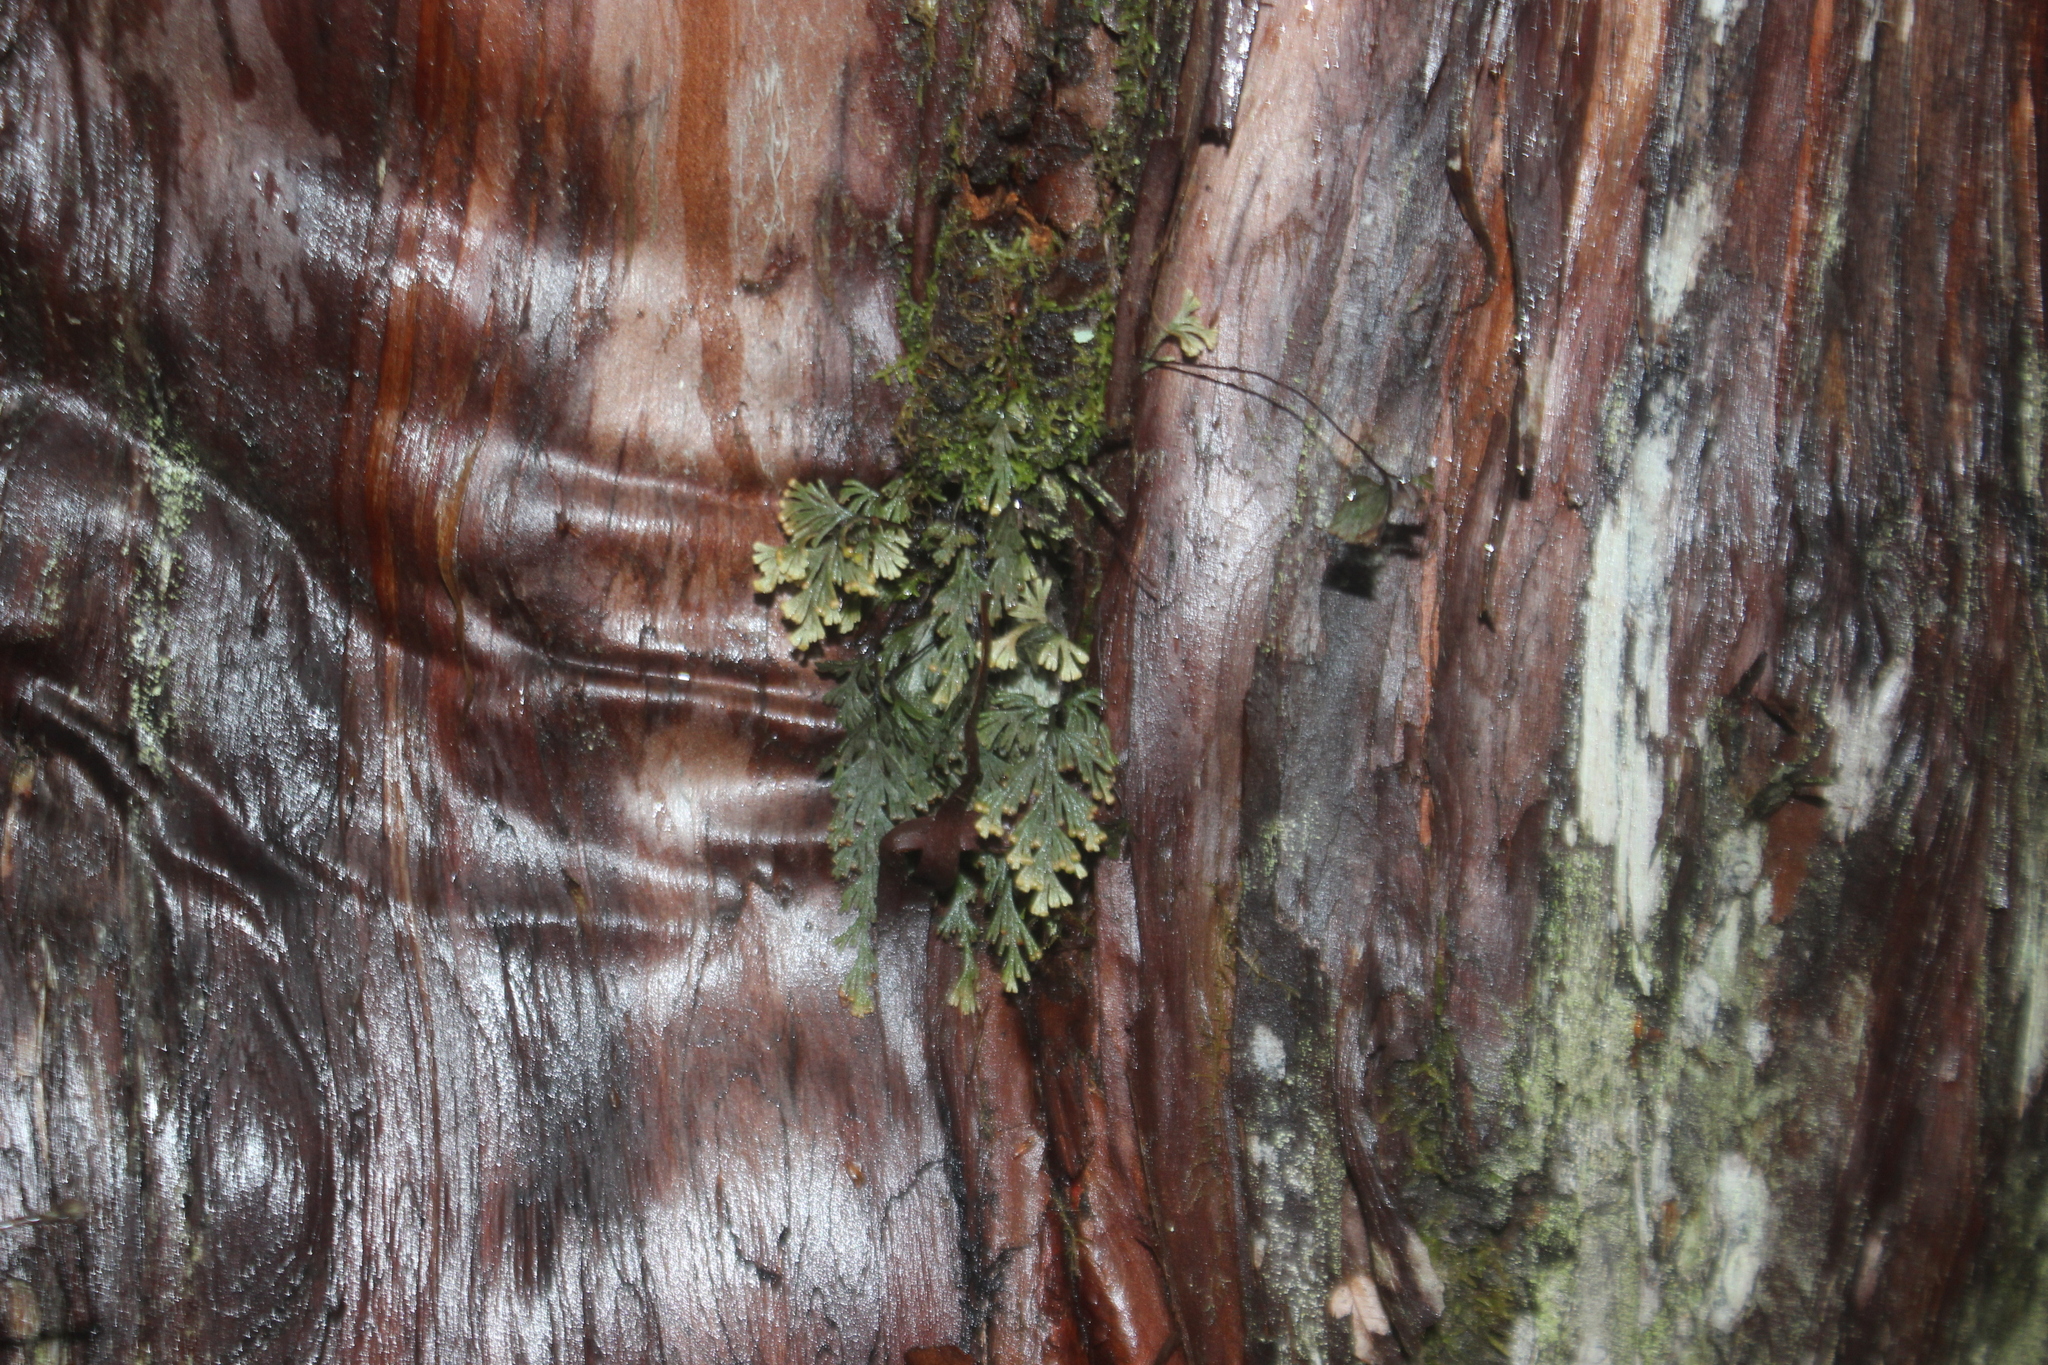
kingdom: Plantae
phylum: Tracheophyta
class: Polypodiopsida
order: Hymenophyllales
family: Hymenophyllaceae
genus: Hymenophyllum
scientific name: Hymenophyllum malingii
